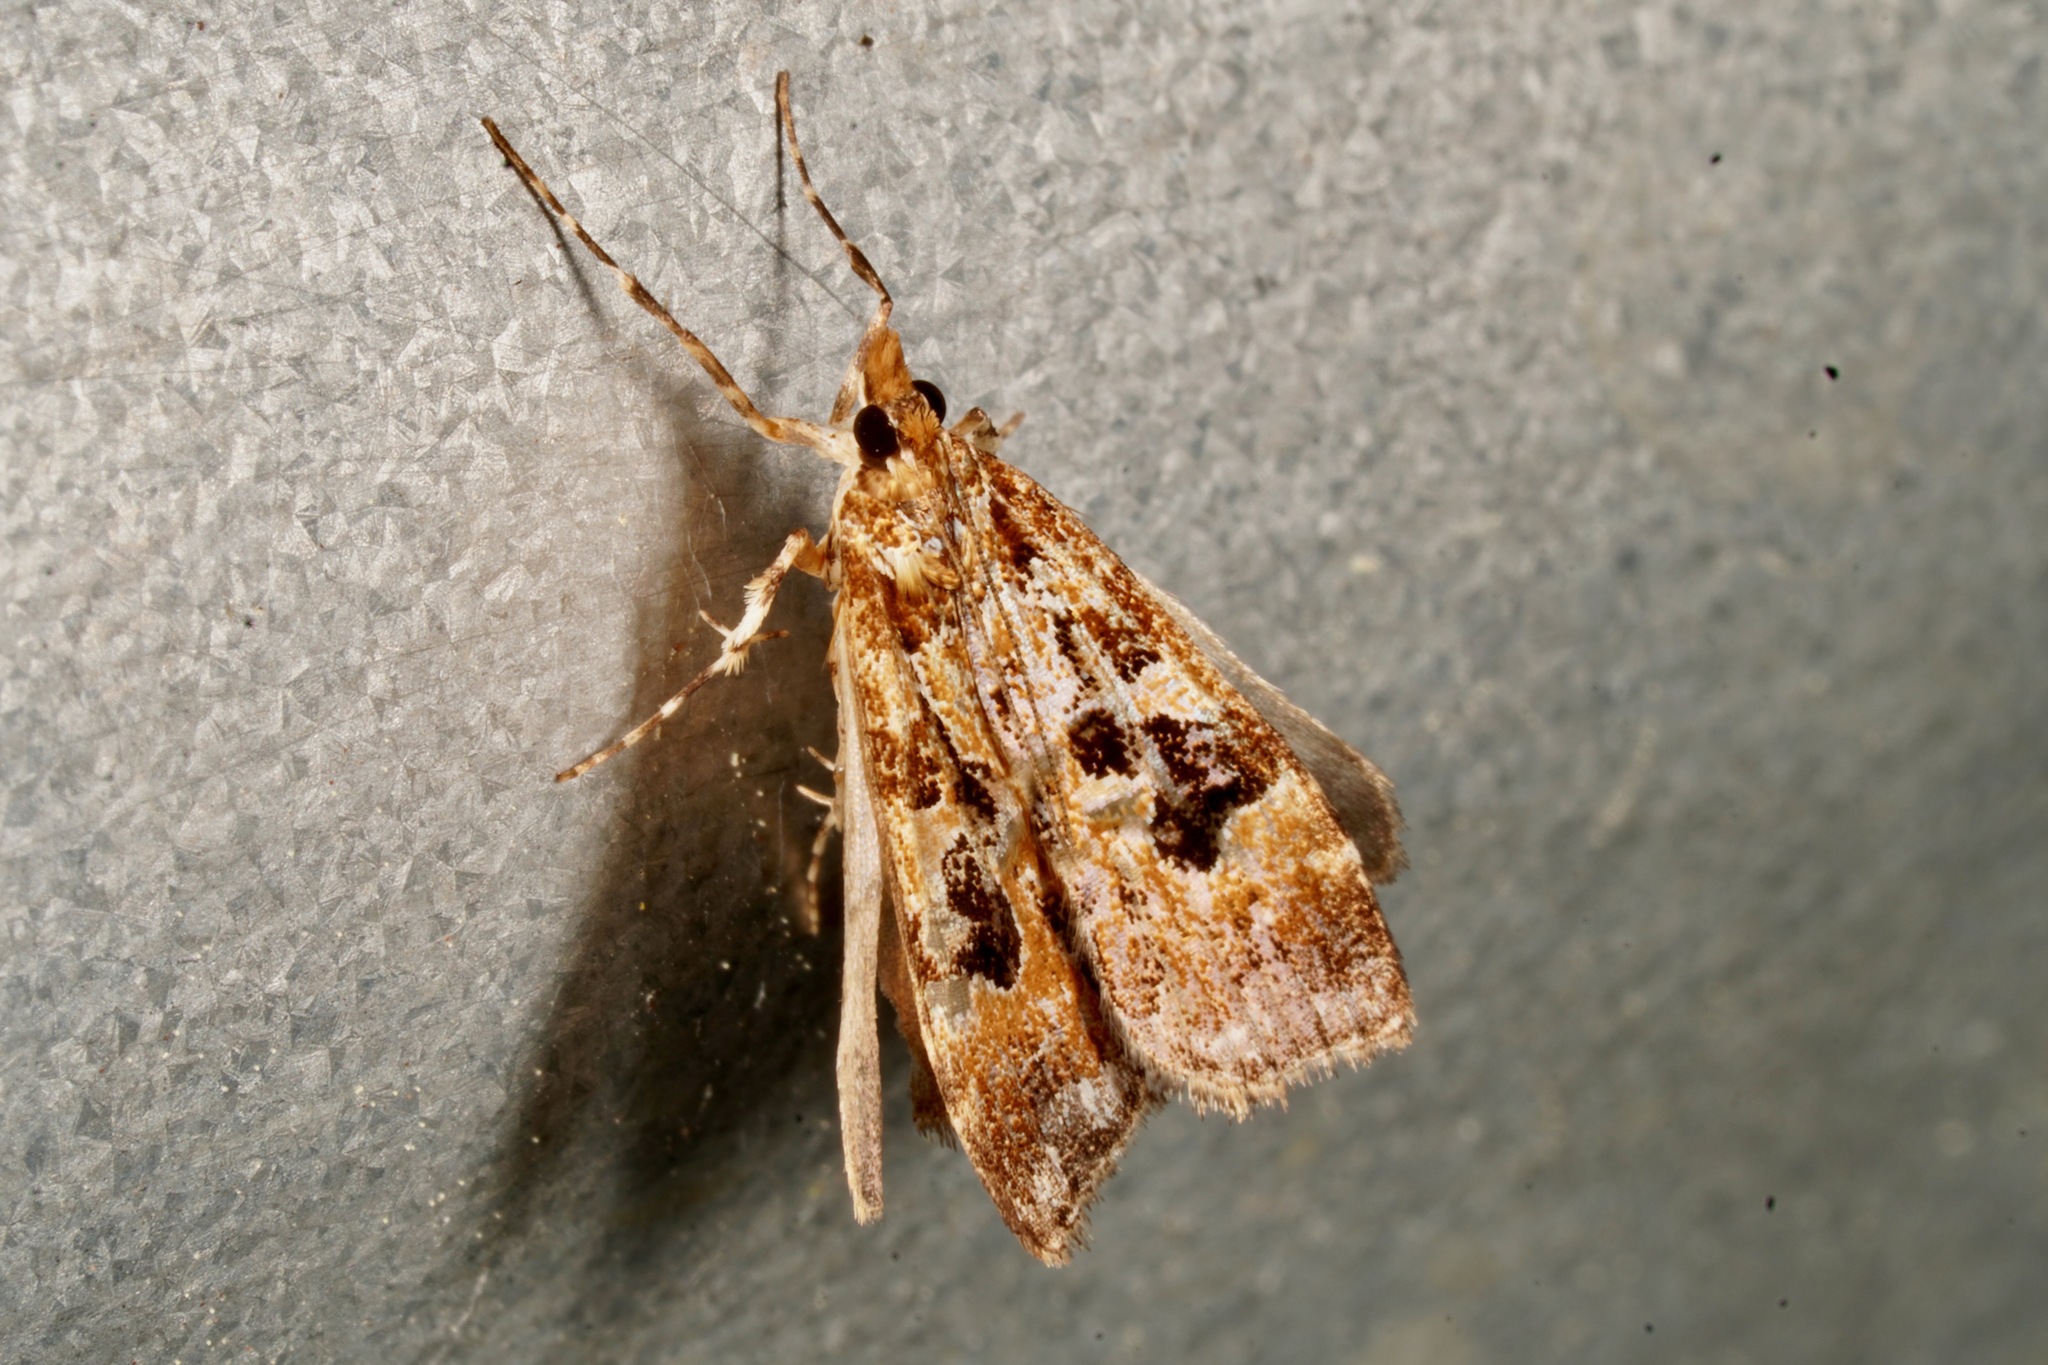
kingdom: Animalia
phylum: Arthropoda
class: Insecta
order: Lepidoptera
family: Crambidae
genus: Scoparia
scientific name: Scoparia ustimacula
